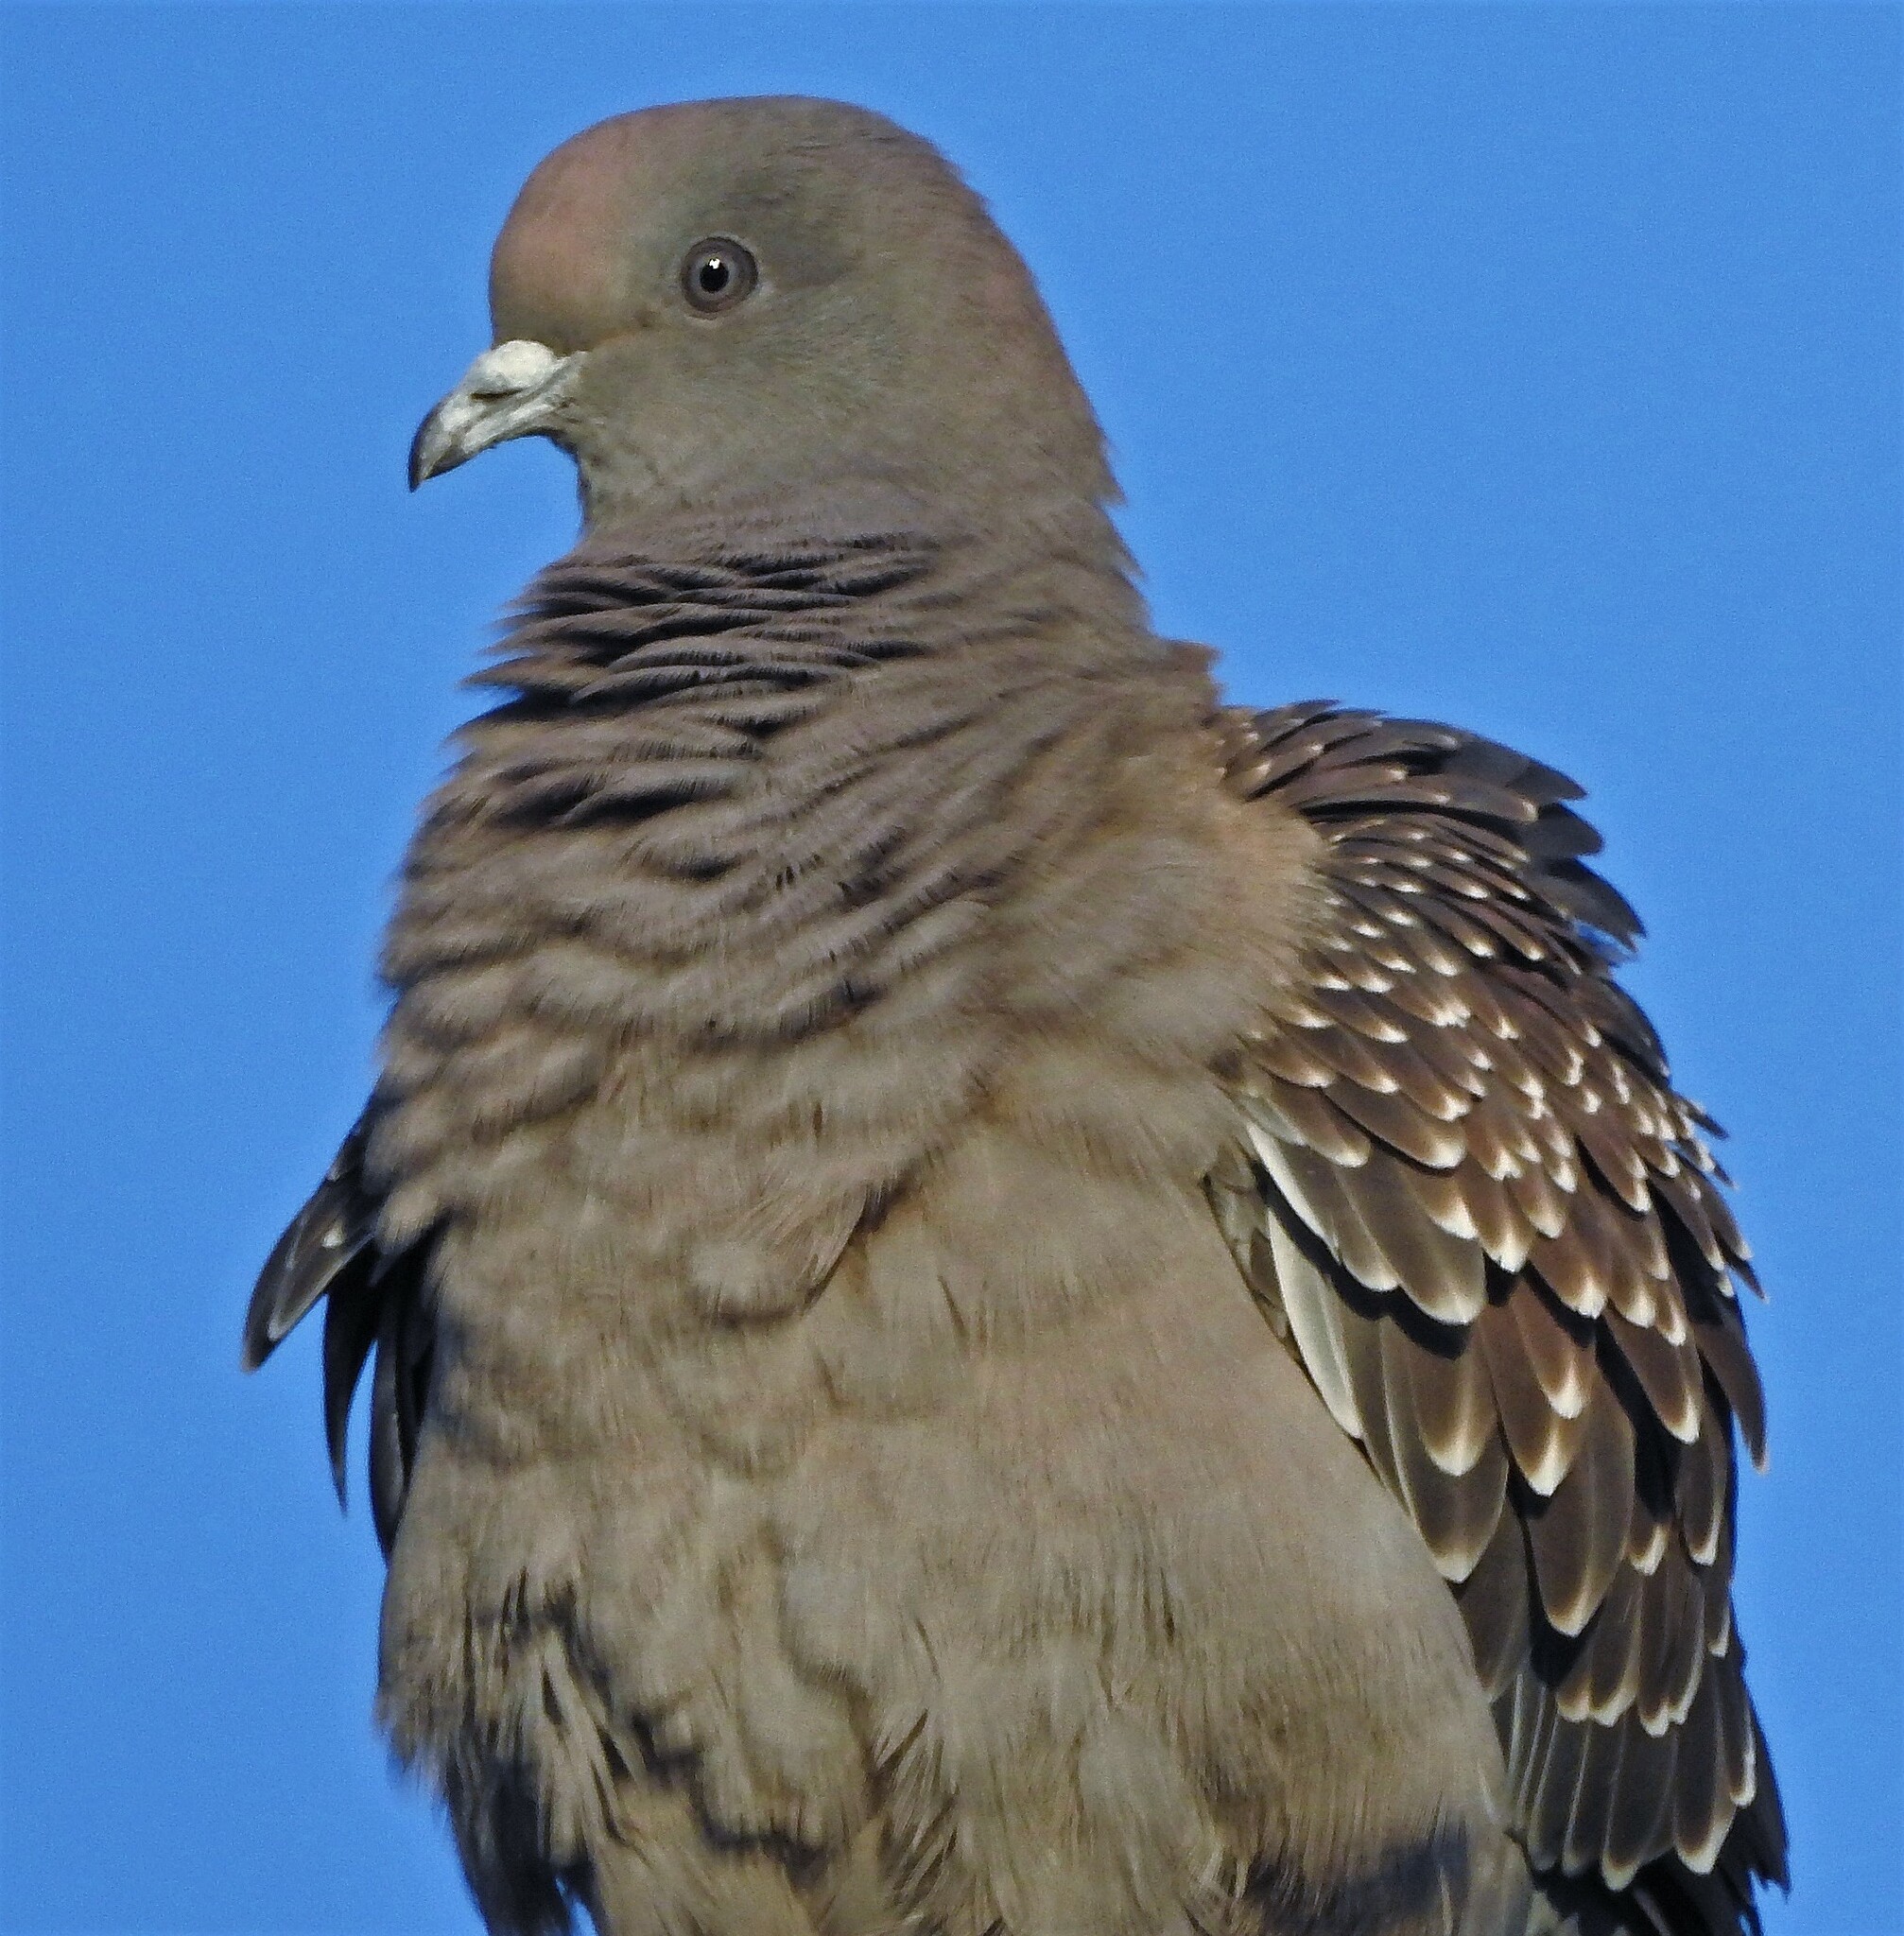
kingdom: Animalia
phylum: Chordata
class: Aves
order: Columbiformes
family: Columbidae
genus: Patagioenas
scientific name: Patagioenas maculosa
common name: Spot-winged pigeon
